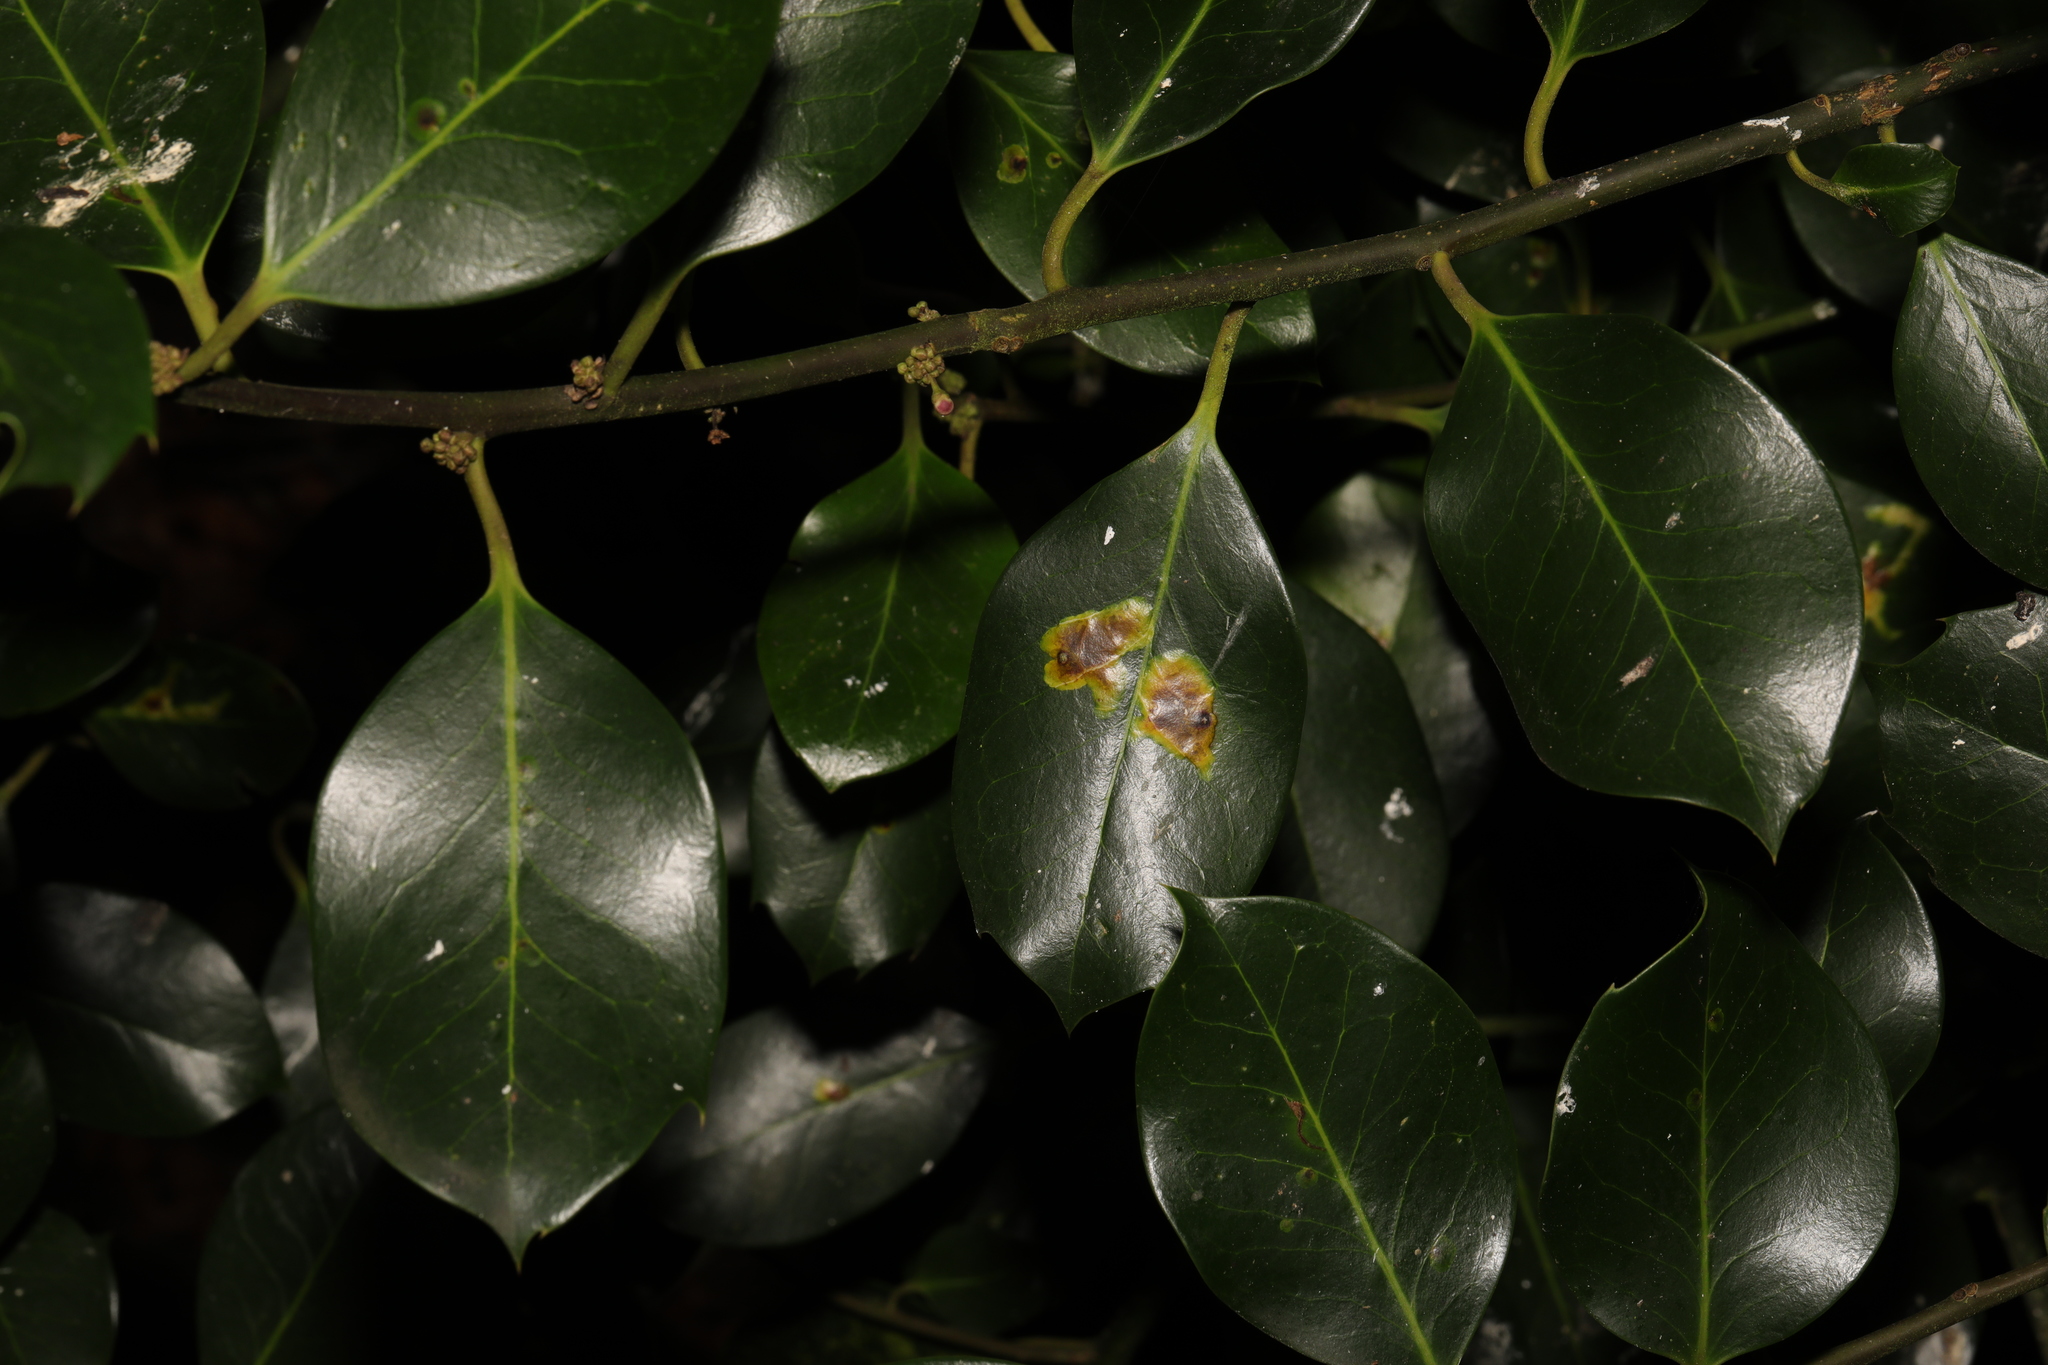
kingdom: Plantae
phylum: Tracheophyta
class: Magnoliopsida
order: Aquifoliales
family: Aquifoliaceae
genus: Ilex
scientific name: Ilex aquifolium
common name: English holly
